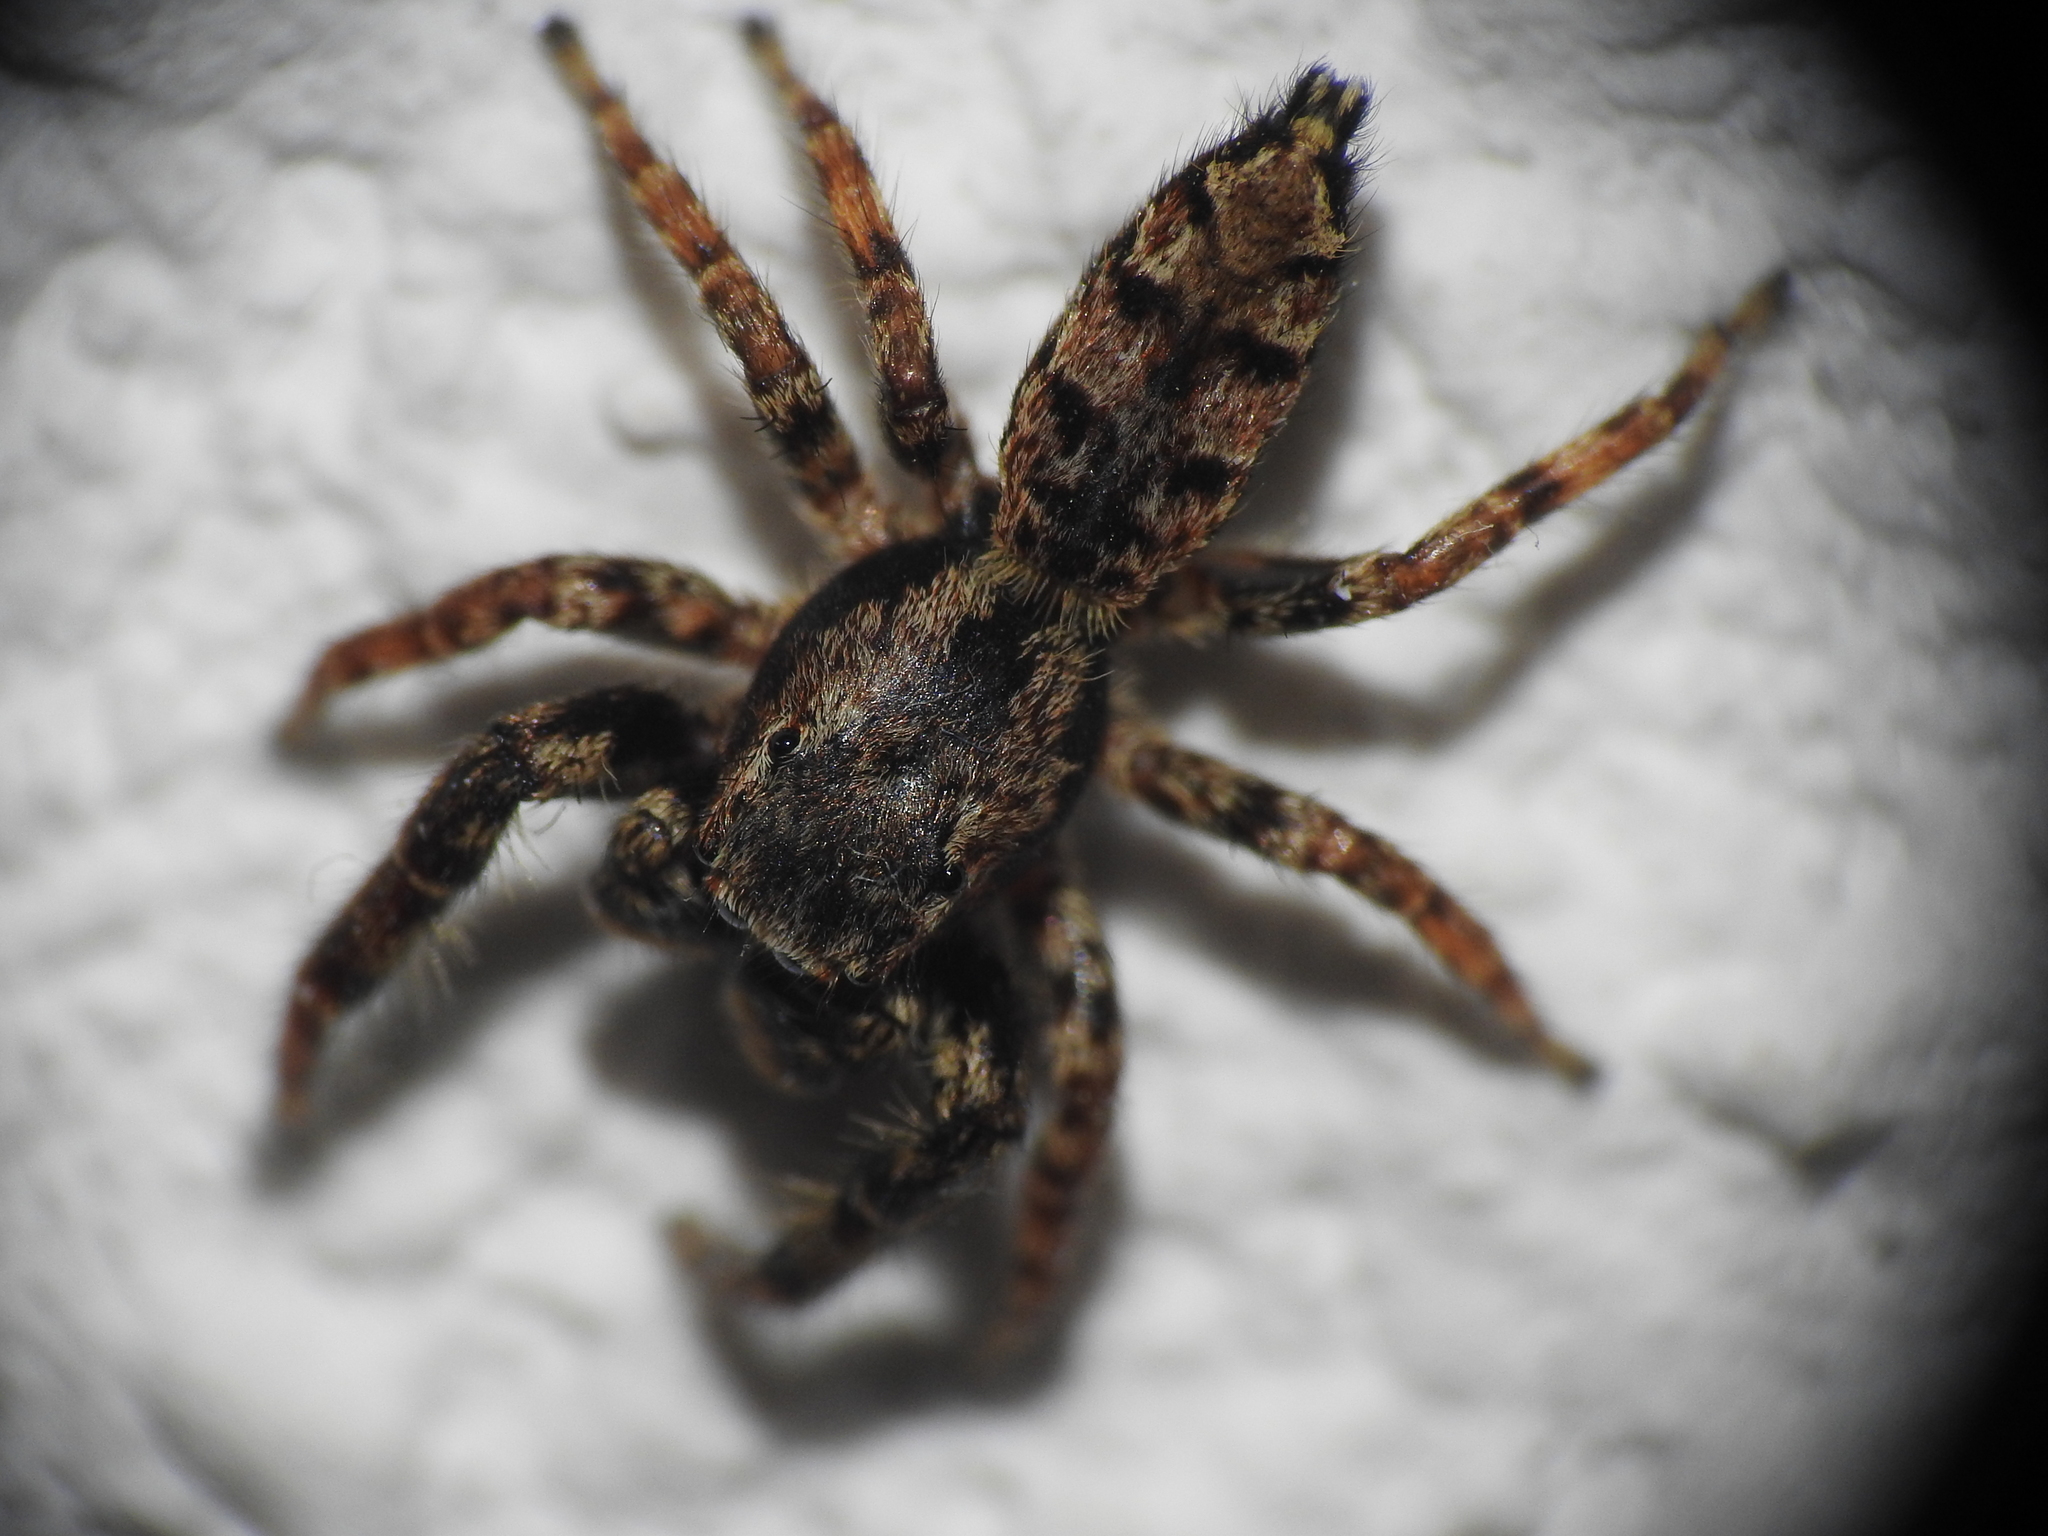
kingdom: Animalia
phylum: Arthropoda
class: Arachnida
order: Araneae
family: Salticidae
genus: Marpissa
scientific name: Marpissa muscosa
